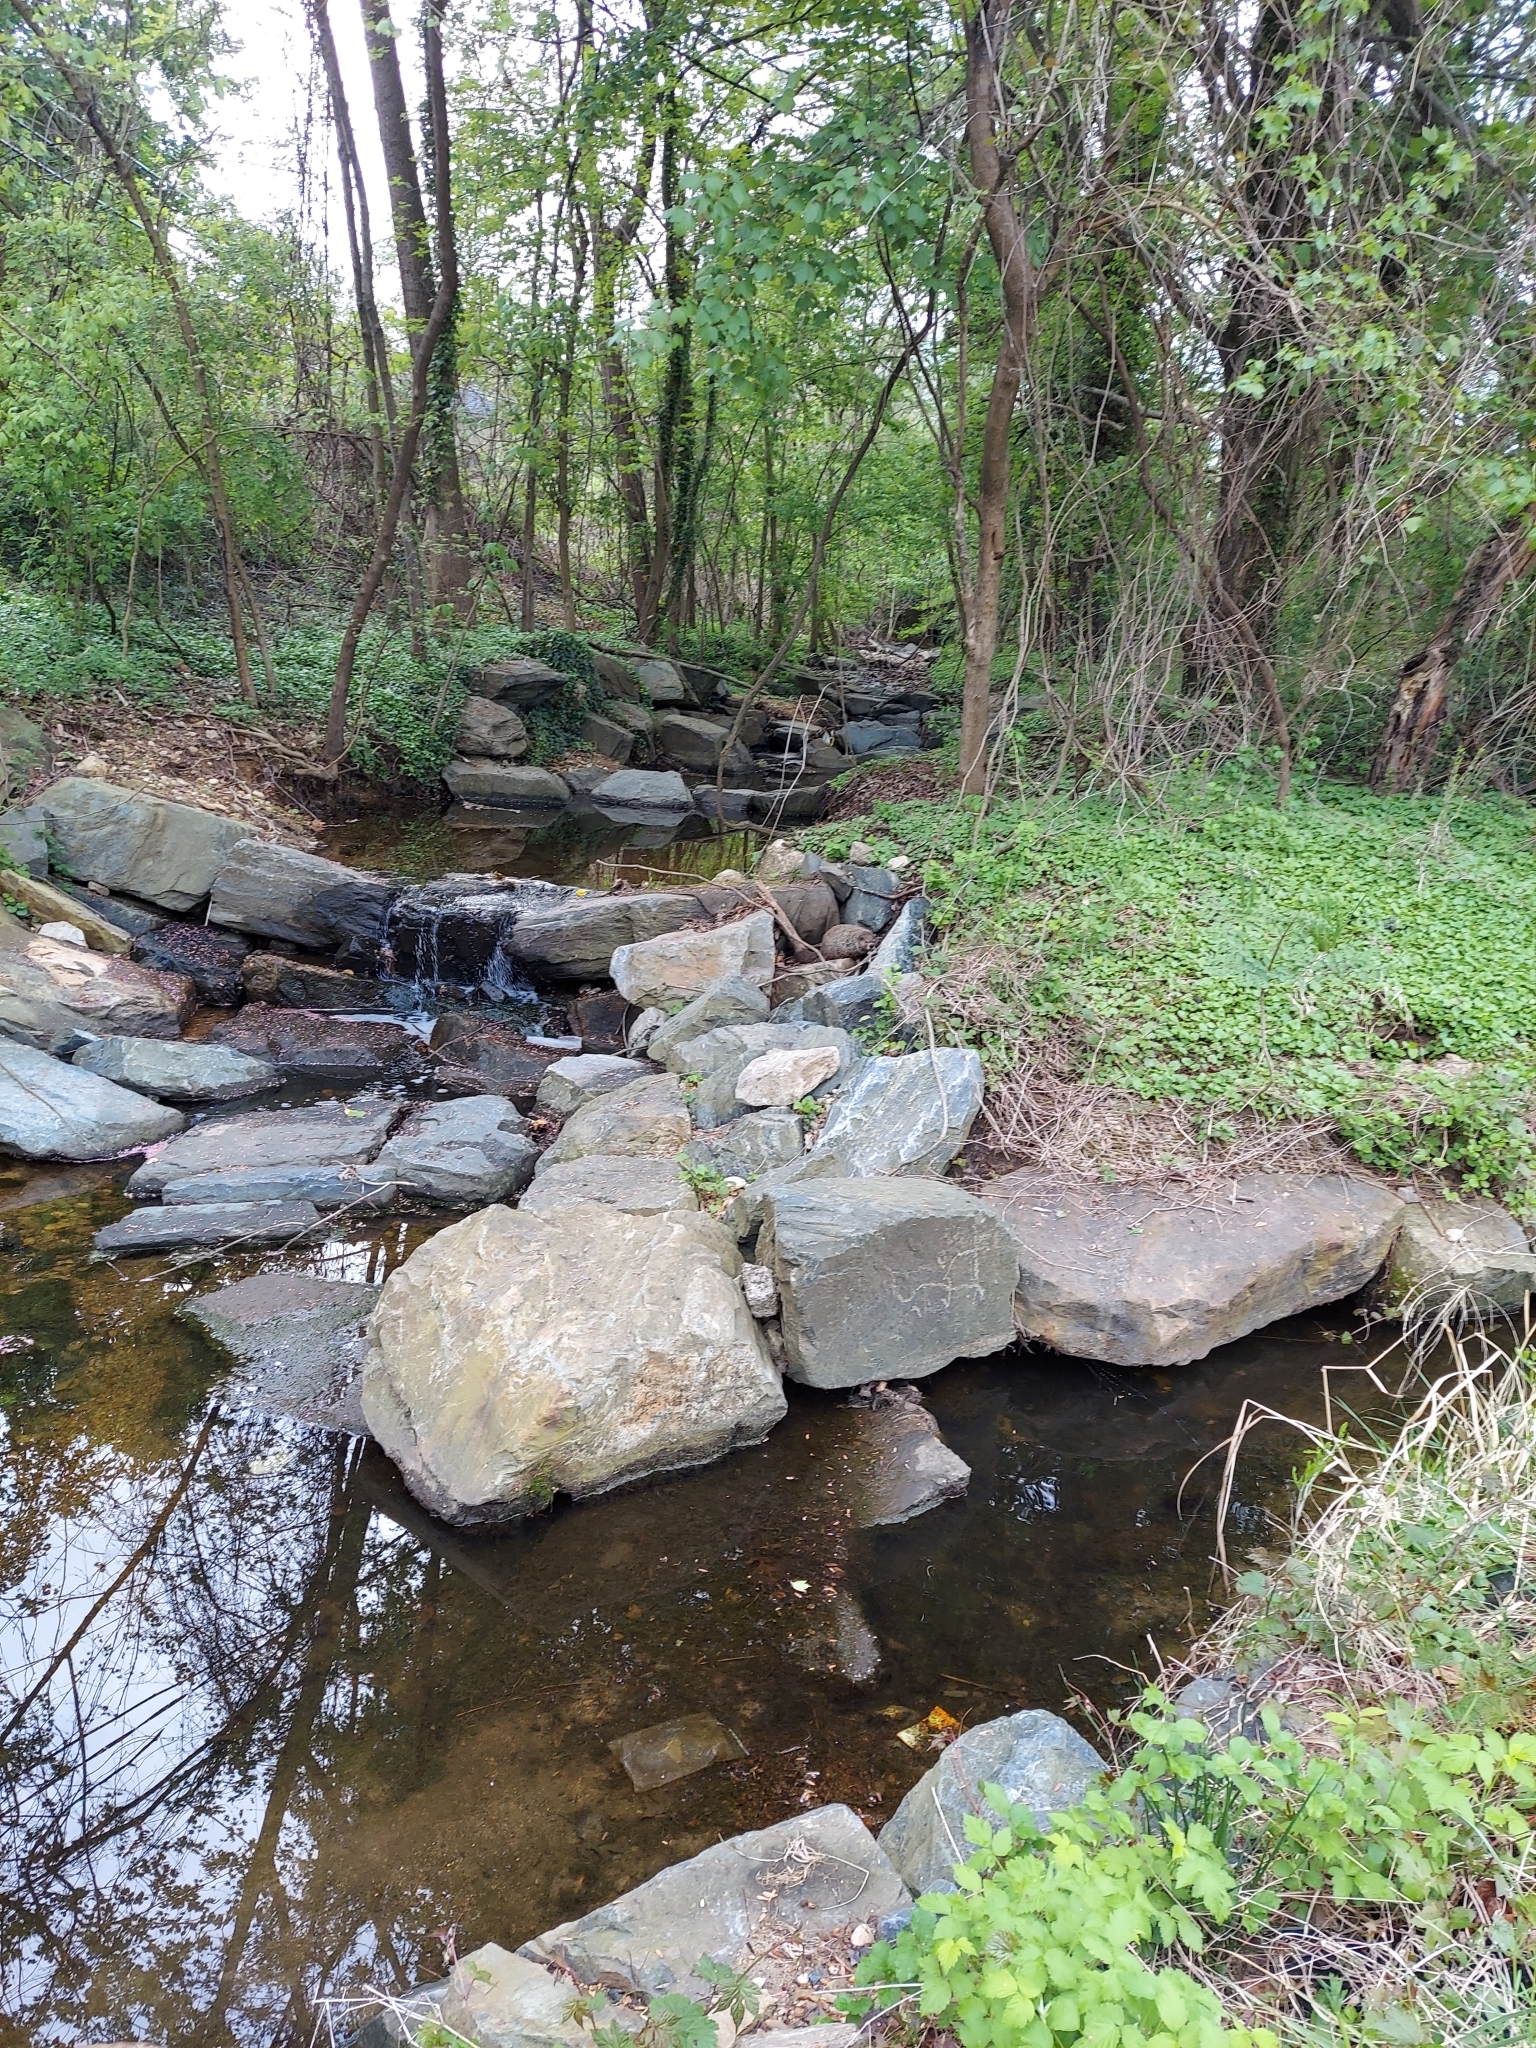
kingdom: Animalia
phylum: Chordata
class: Mammalia
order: Rodentia
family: Sciuridae
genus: Marmota
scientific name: Marmota monax
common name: Groundhog
